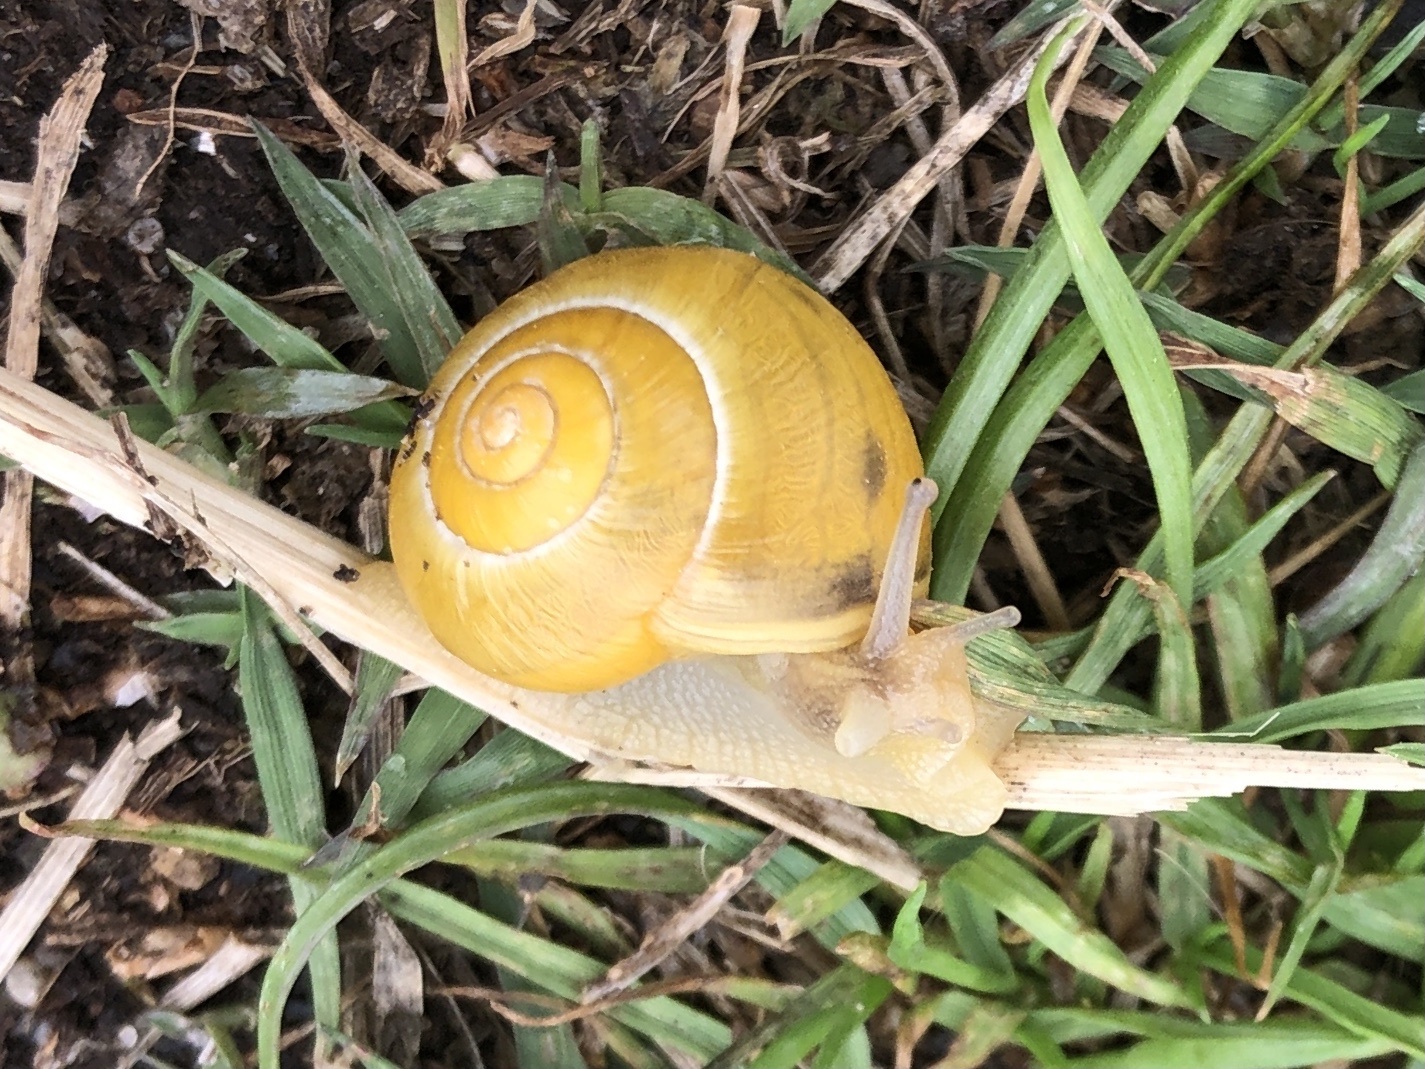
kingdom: Animalia
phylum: Mollusca
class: Gastropoda
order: Stylommatophora
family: Helicidae
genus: Cepaea
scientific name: Cepaea
